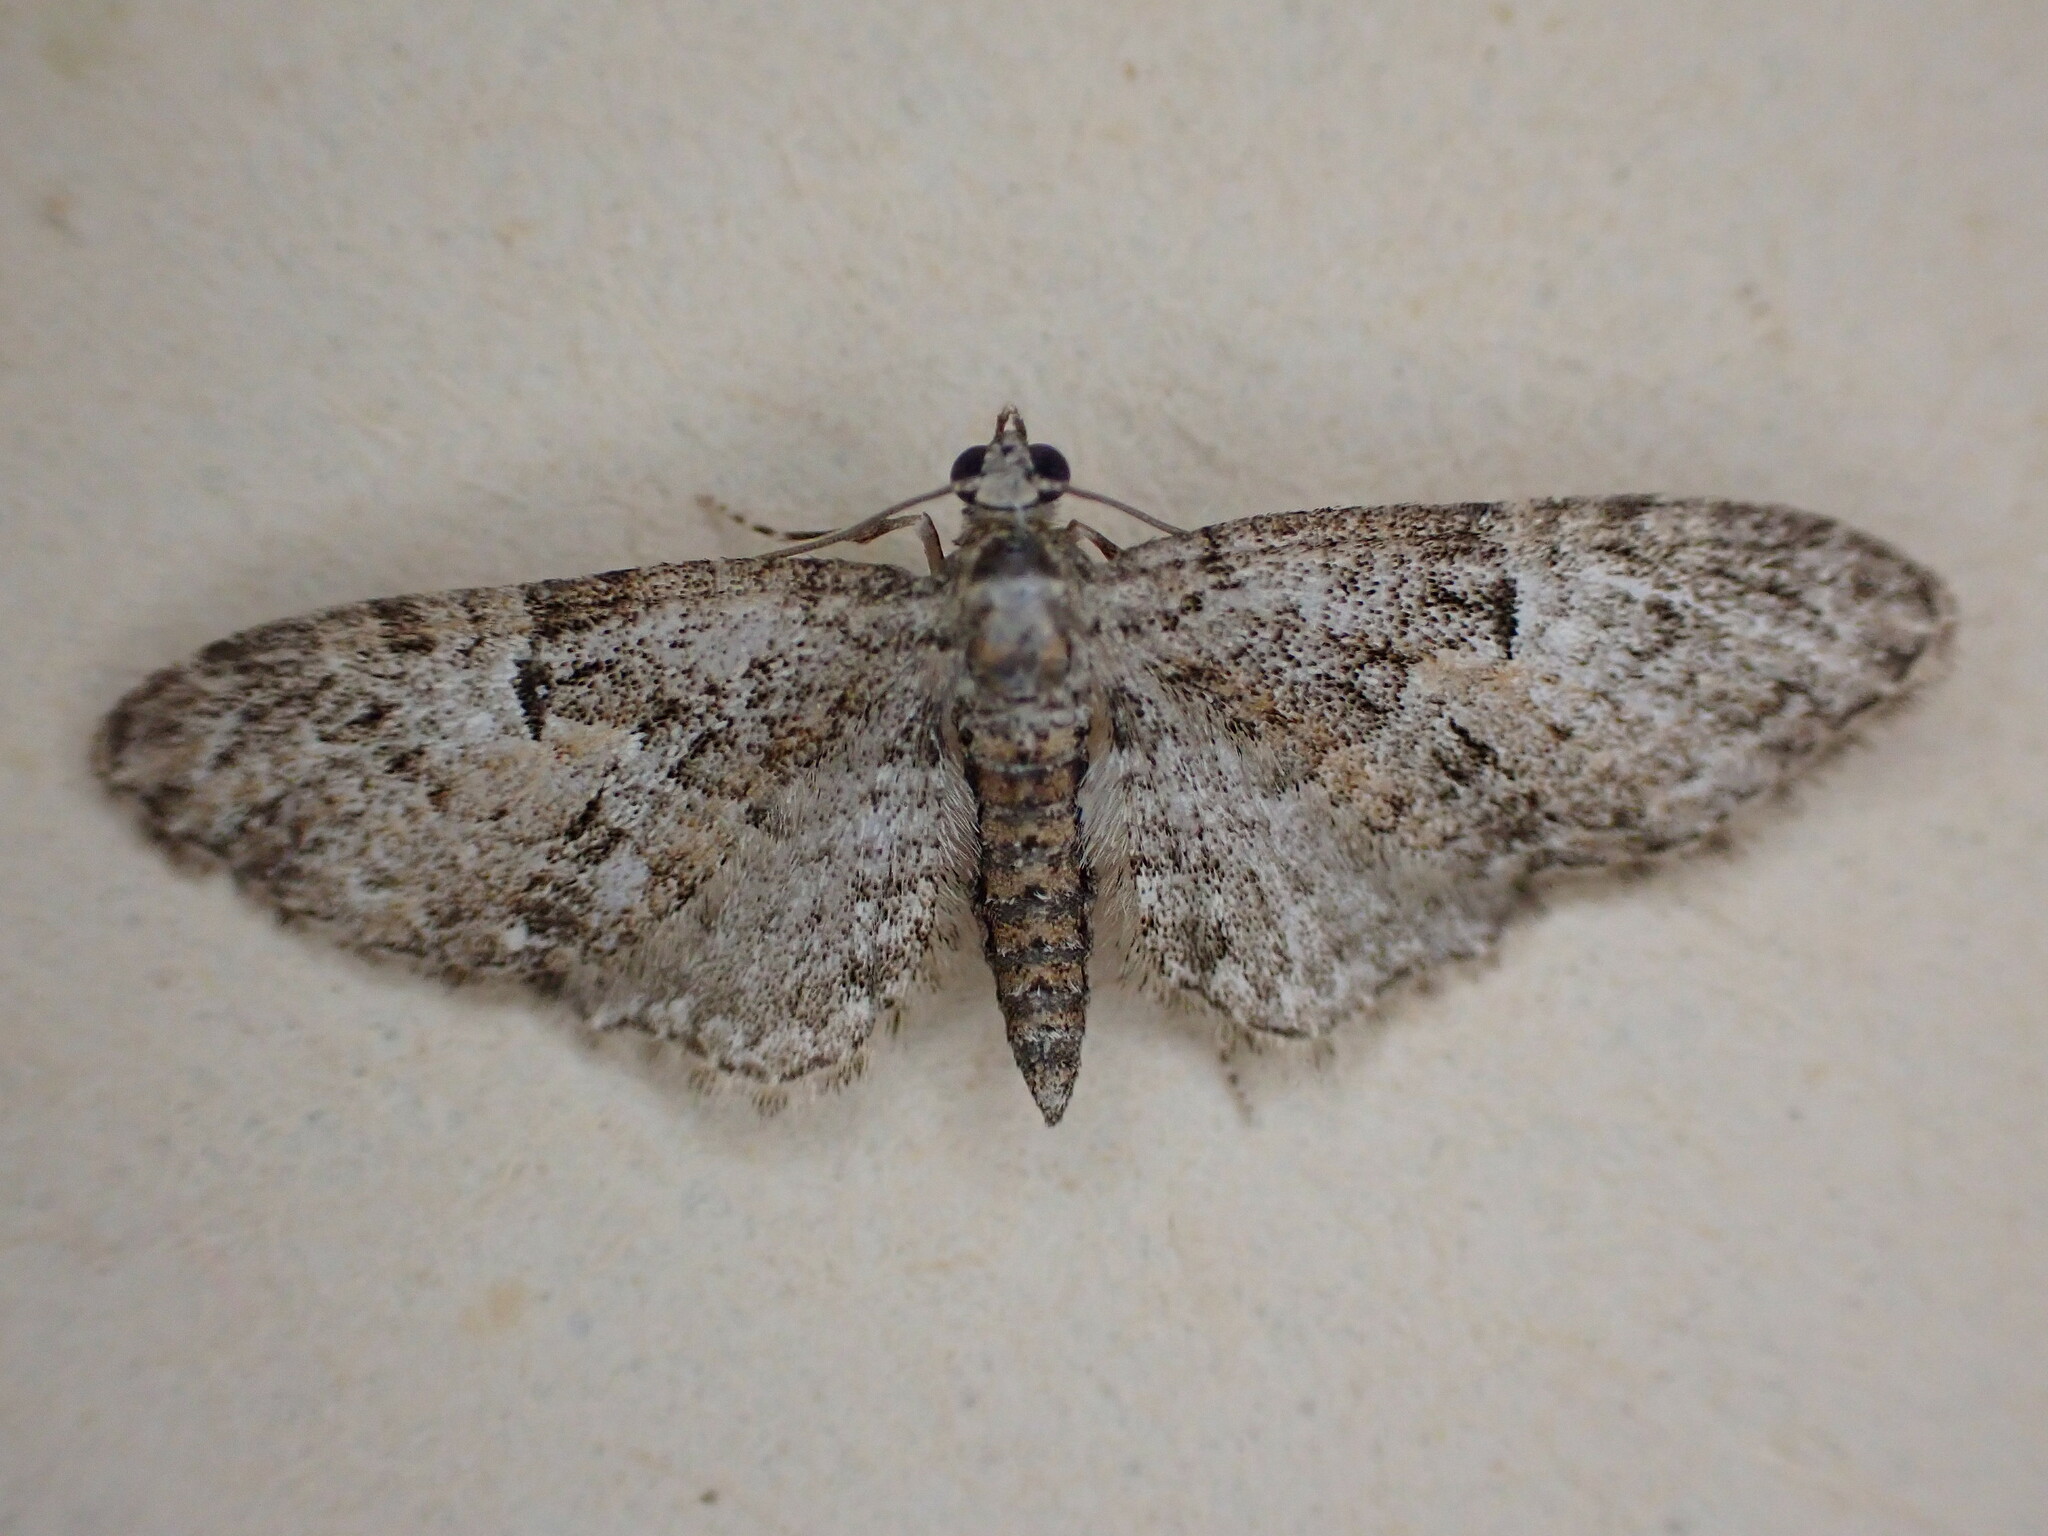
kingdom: Animalia
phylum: Arthropoda
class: Insecta
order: Lepidoptera
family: Geometridae
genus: Eupithecia
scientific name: Eupithecia dodoneata
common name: Oak-tree pug
